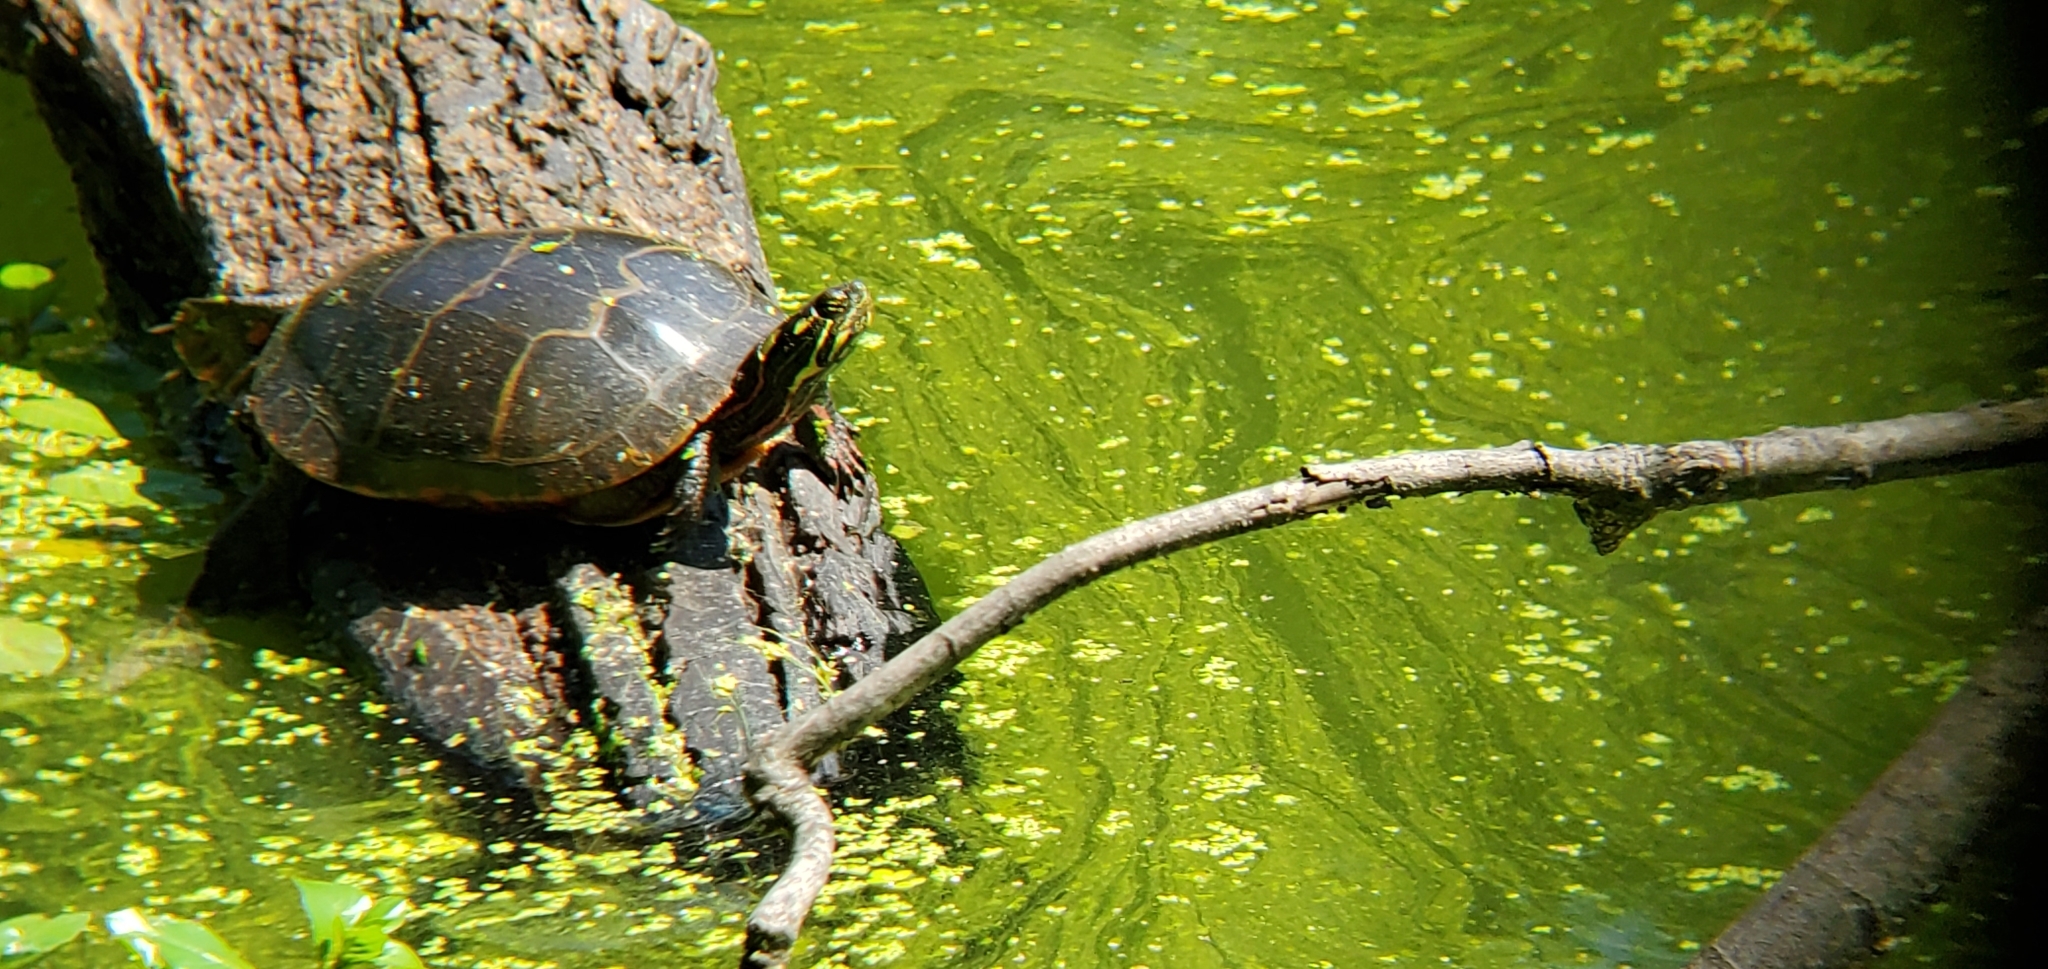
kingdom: Animalia
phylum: Chordata
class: Testudines
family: Emydidae
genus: Chrysemys
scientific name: Chrysemys picta
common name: Painted turtle
